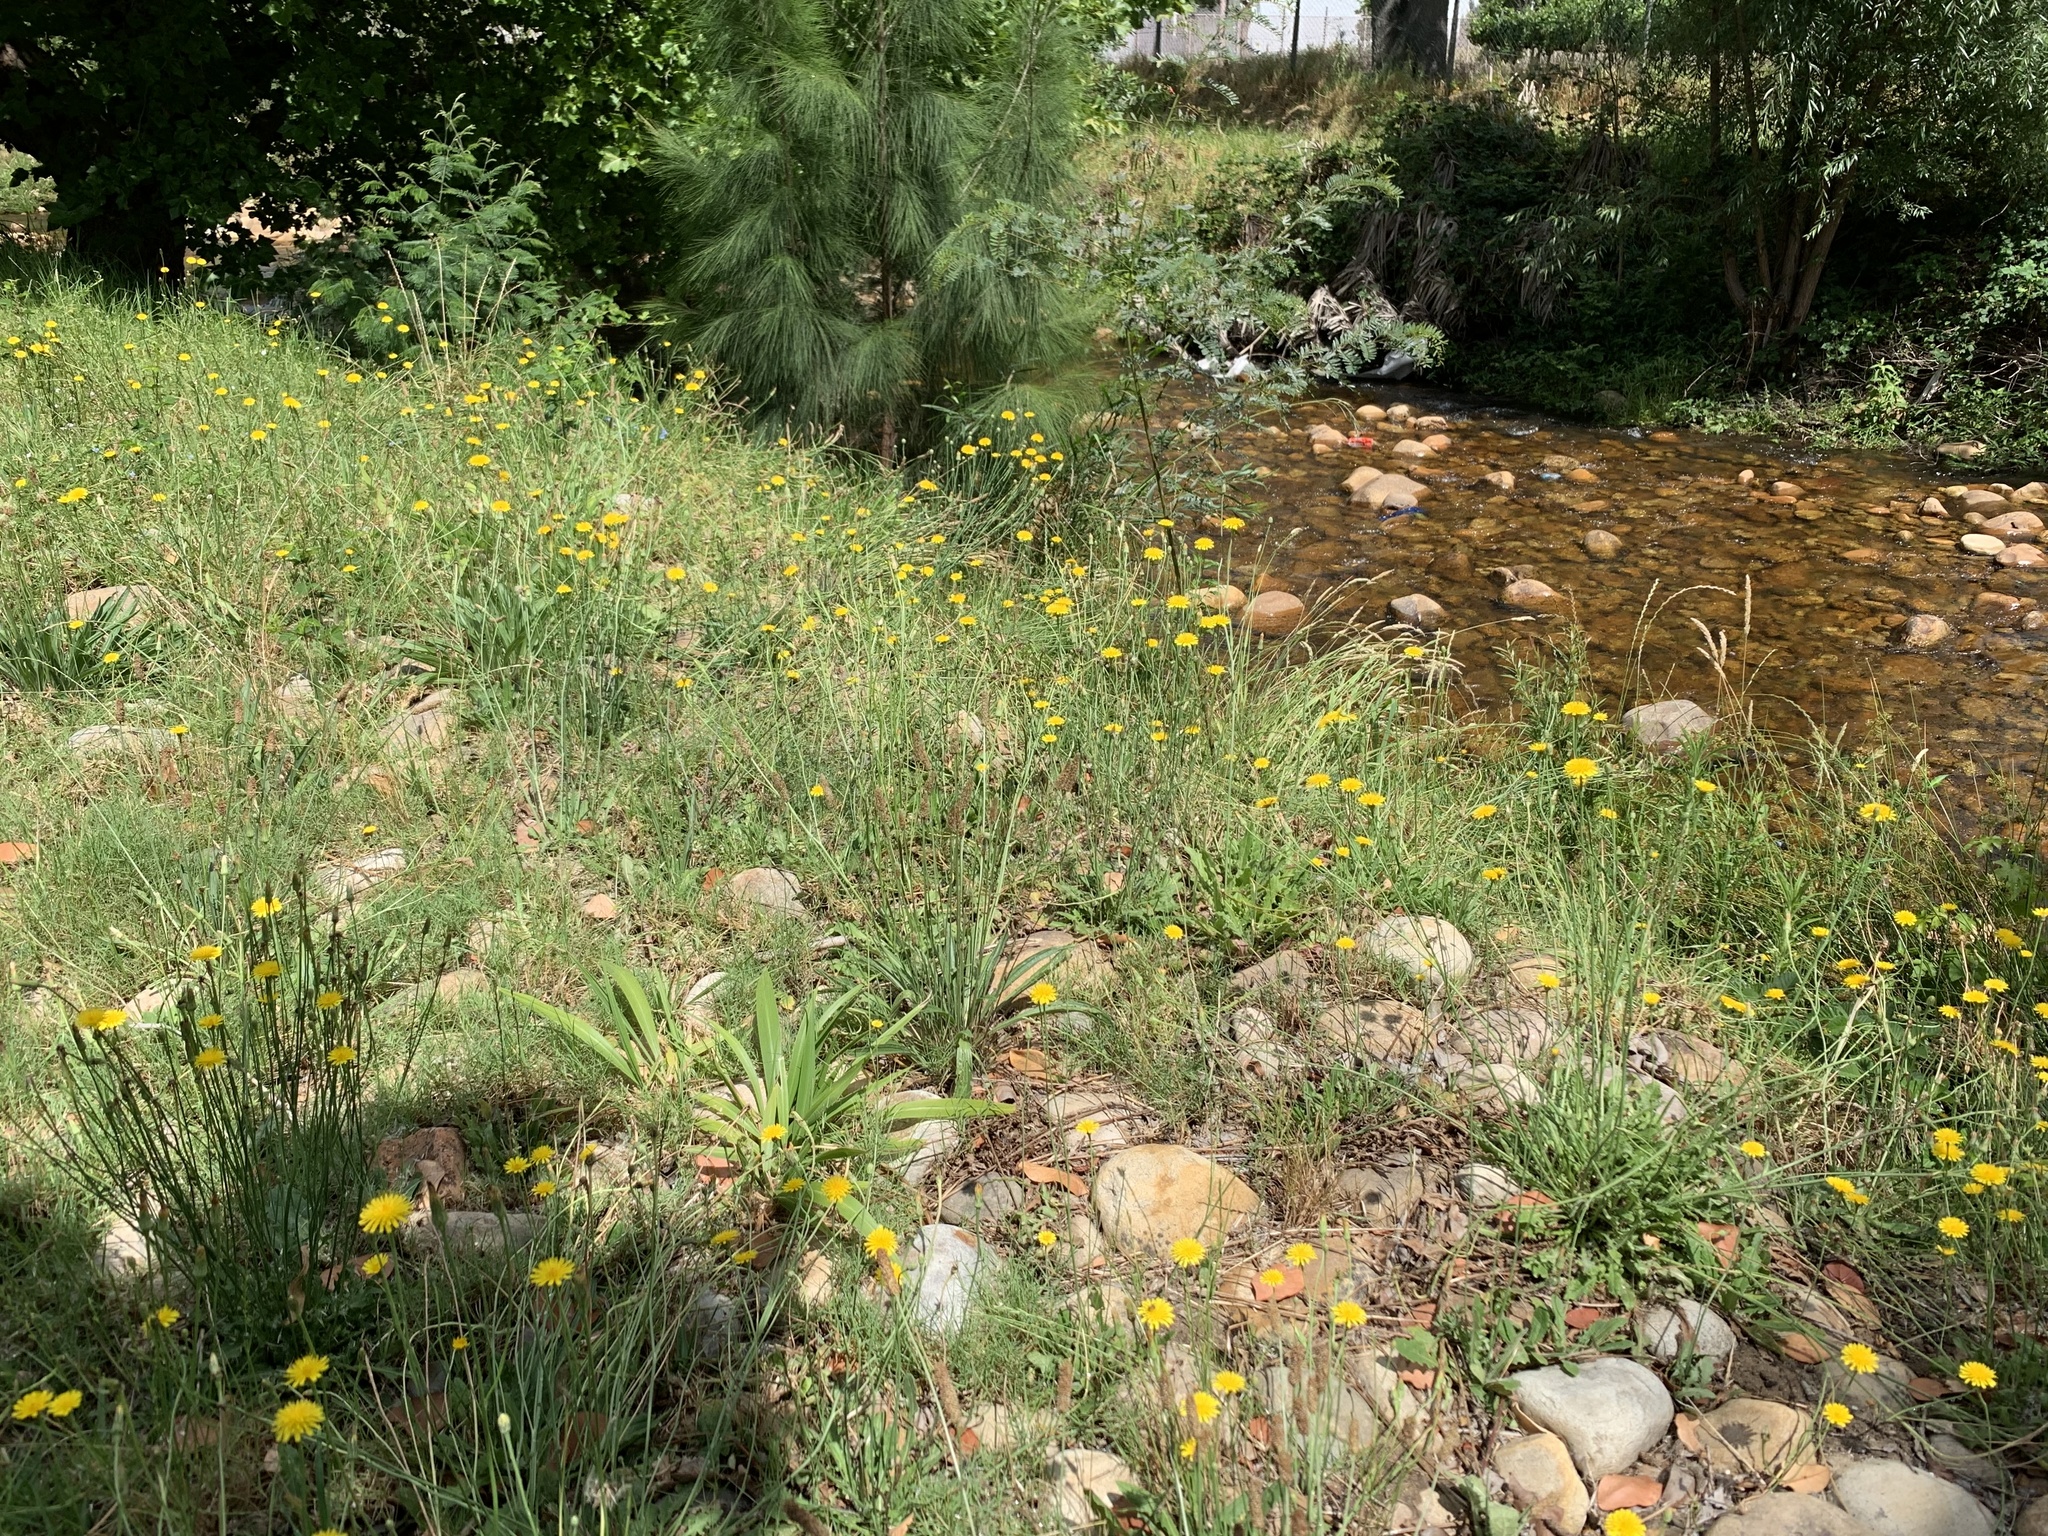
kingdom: Plantae
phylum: Tracheophyta
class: Magnoliopsida
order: Asterales
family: Asteraceae
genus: Hypochaeris
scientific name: Hypochaeris radicata
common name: Flatweed
